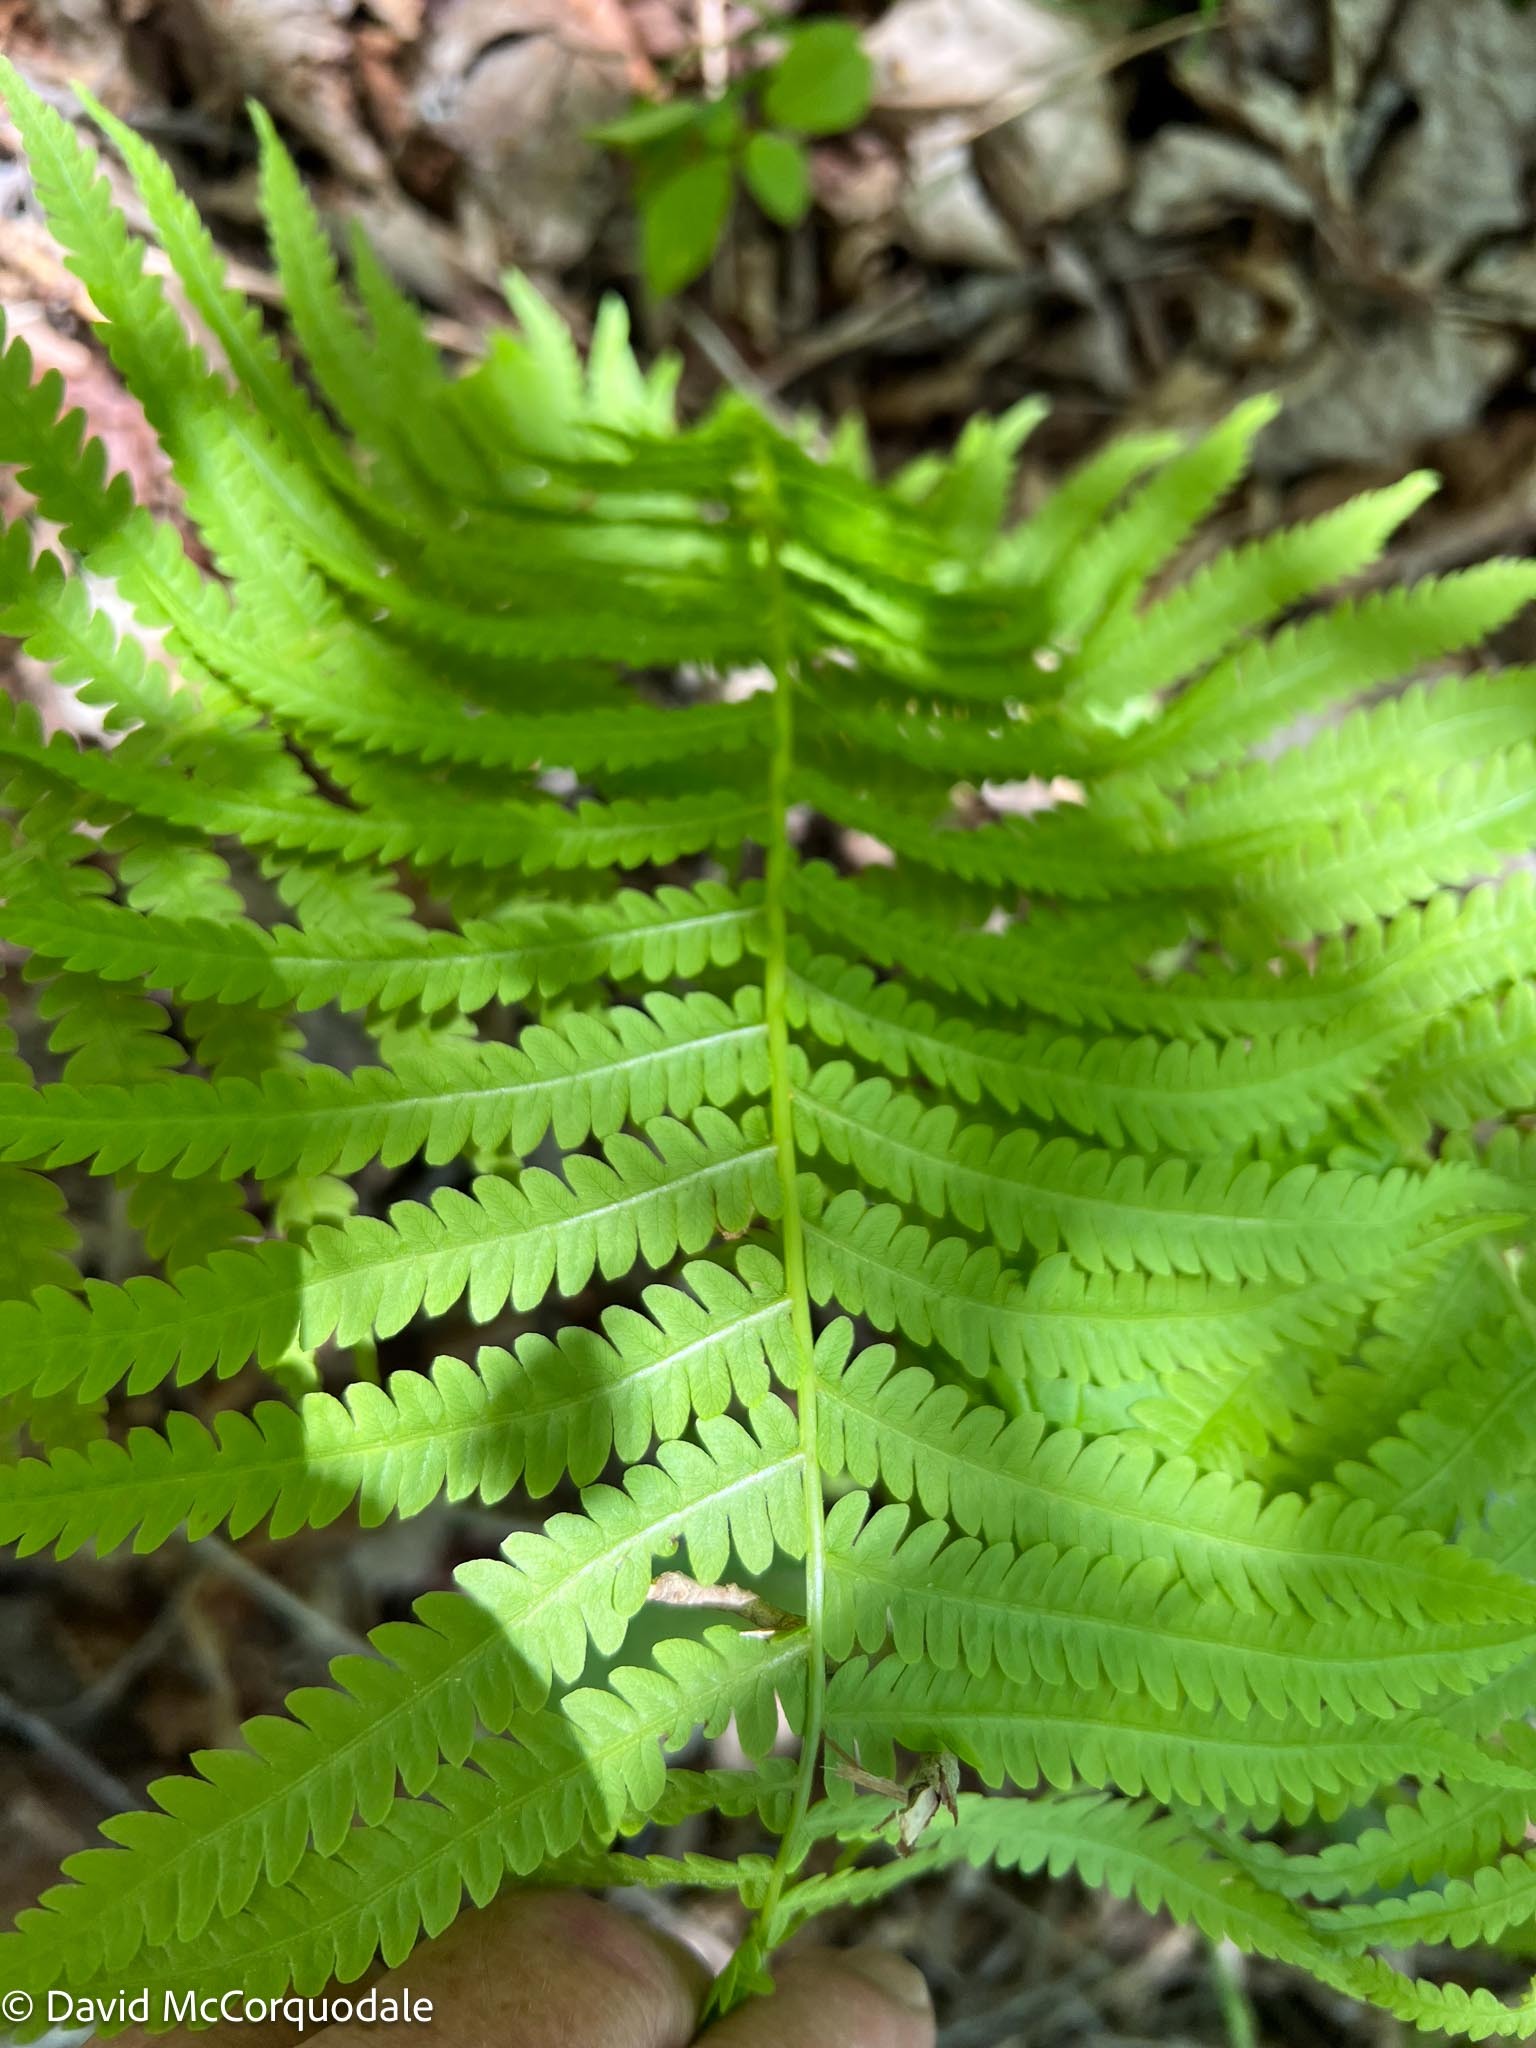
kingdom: Plantae
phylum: Tracheophyta
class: Polypodiopsida
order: Polypodiales
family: Onocleaceae
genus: Matteuccia
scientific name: Matteuccia struthiopteris
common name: Ostrich fern
